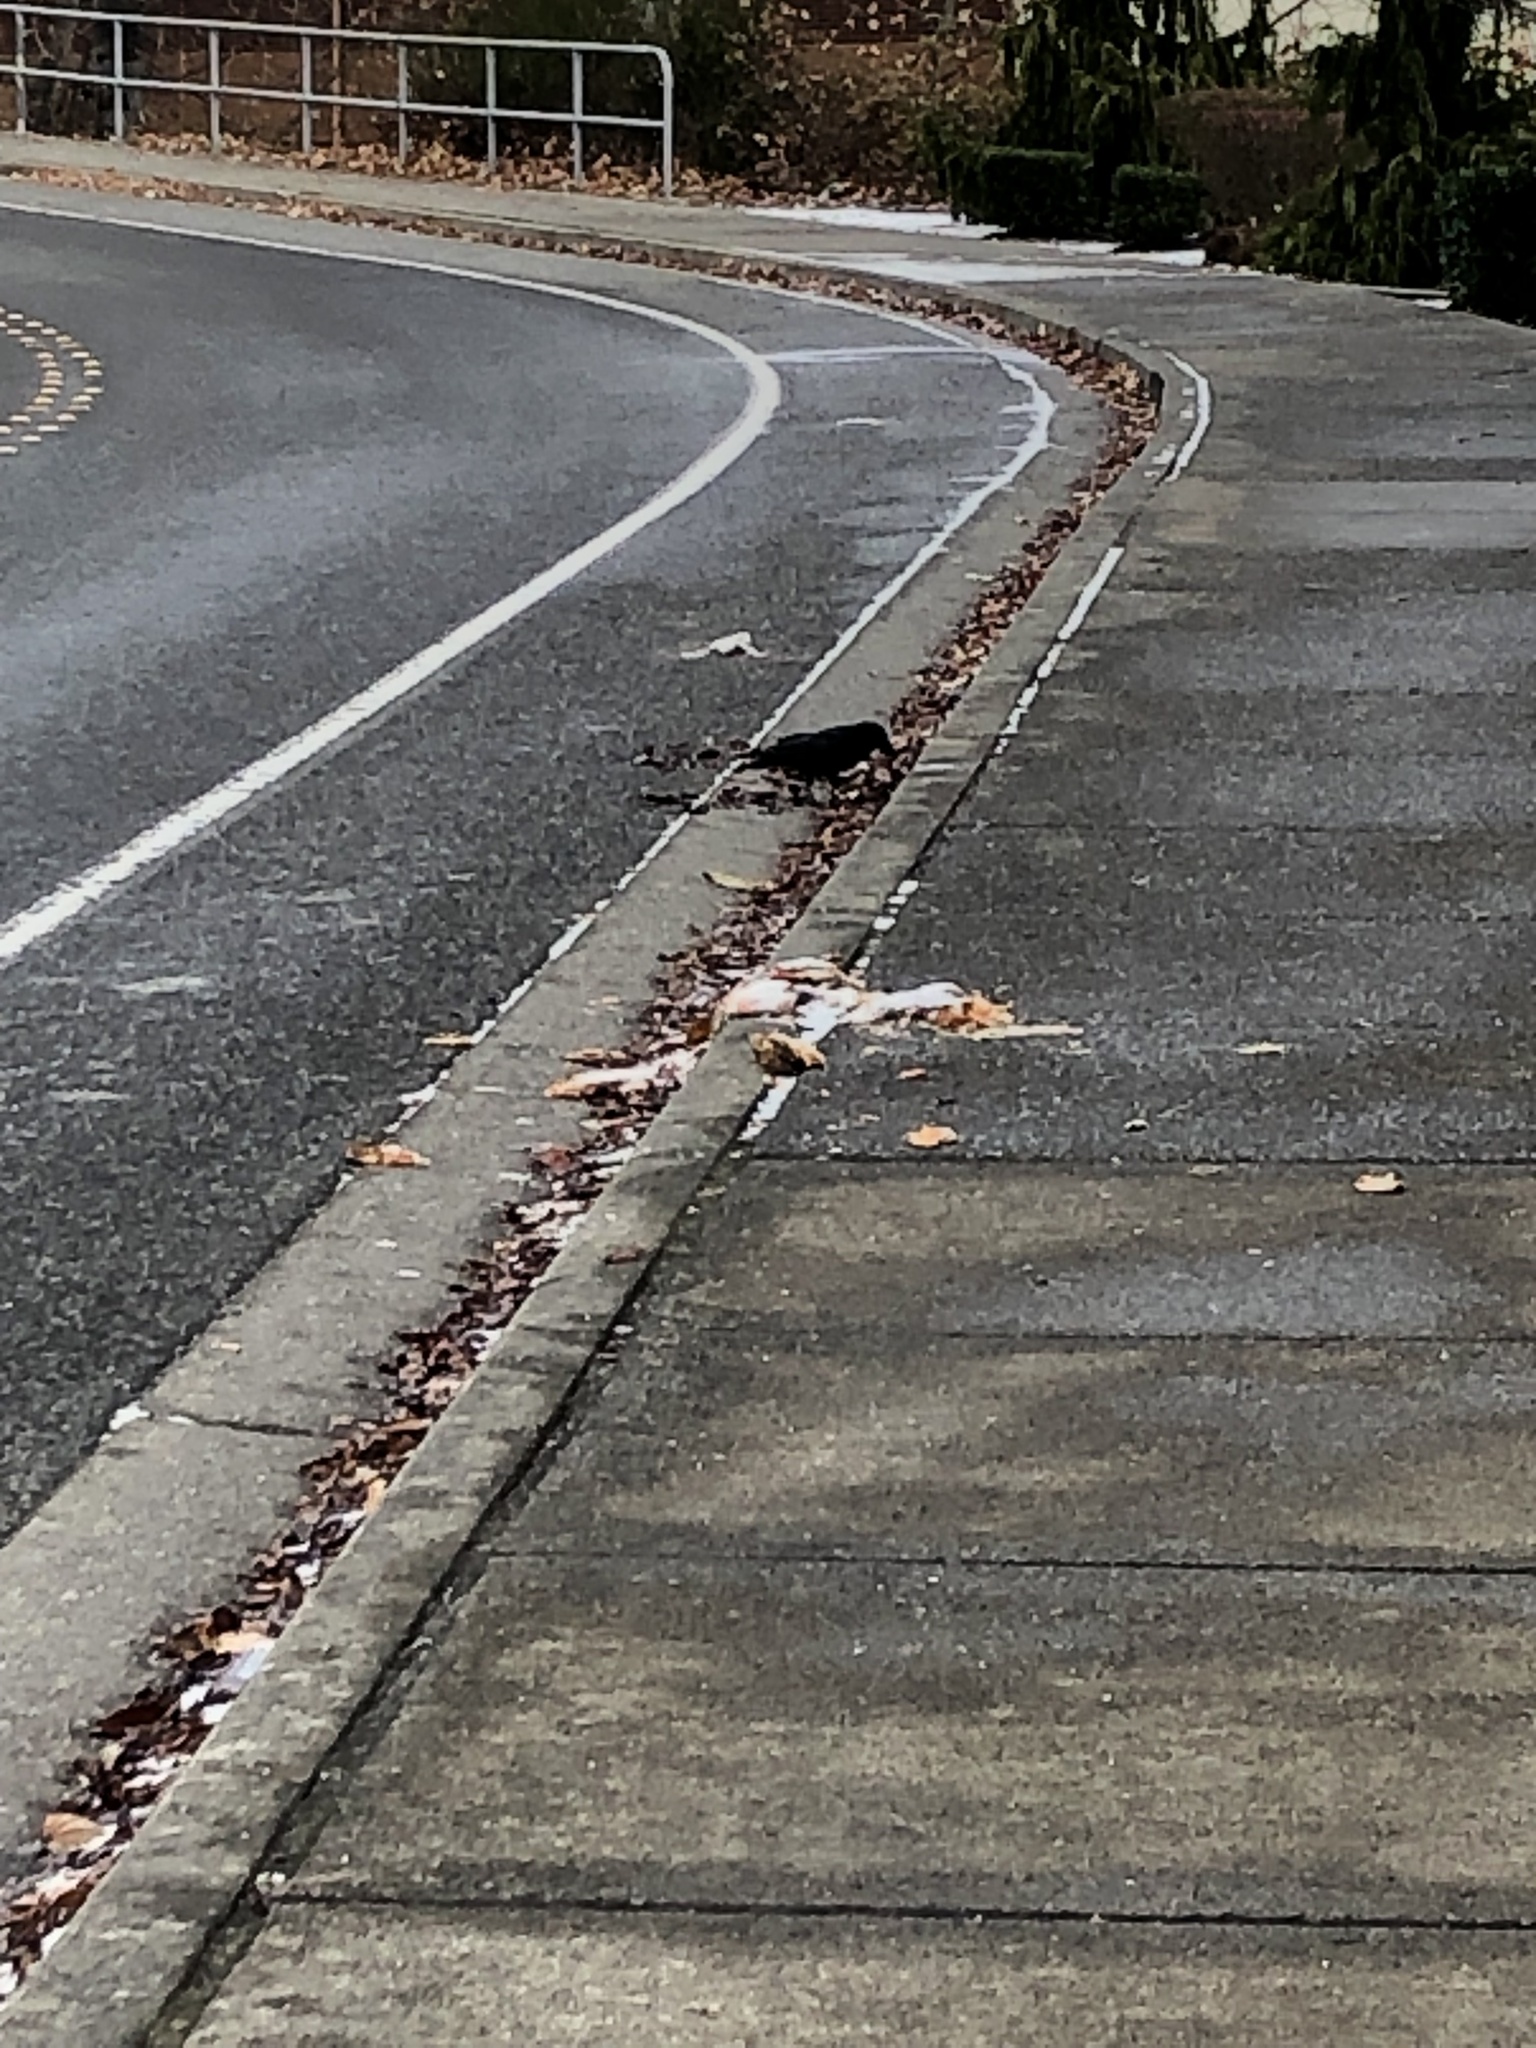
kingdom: Animalia
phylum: Chordata
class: Aves
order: Passeriformes
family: Corvidae
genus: Corvus
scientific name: Corvus brachyrhynchos
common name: American crow
